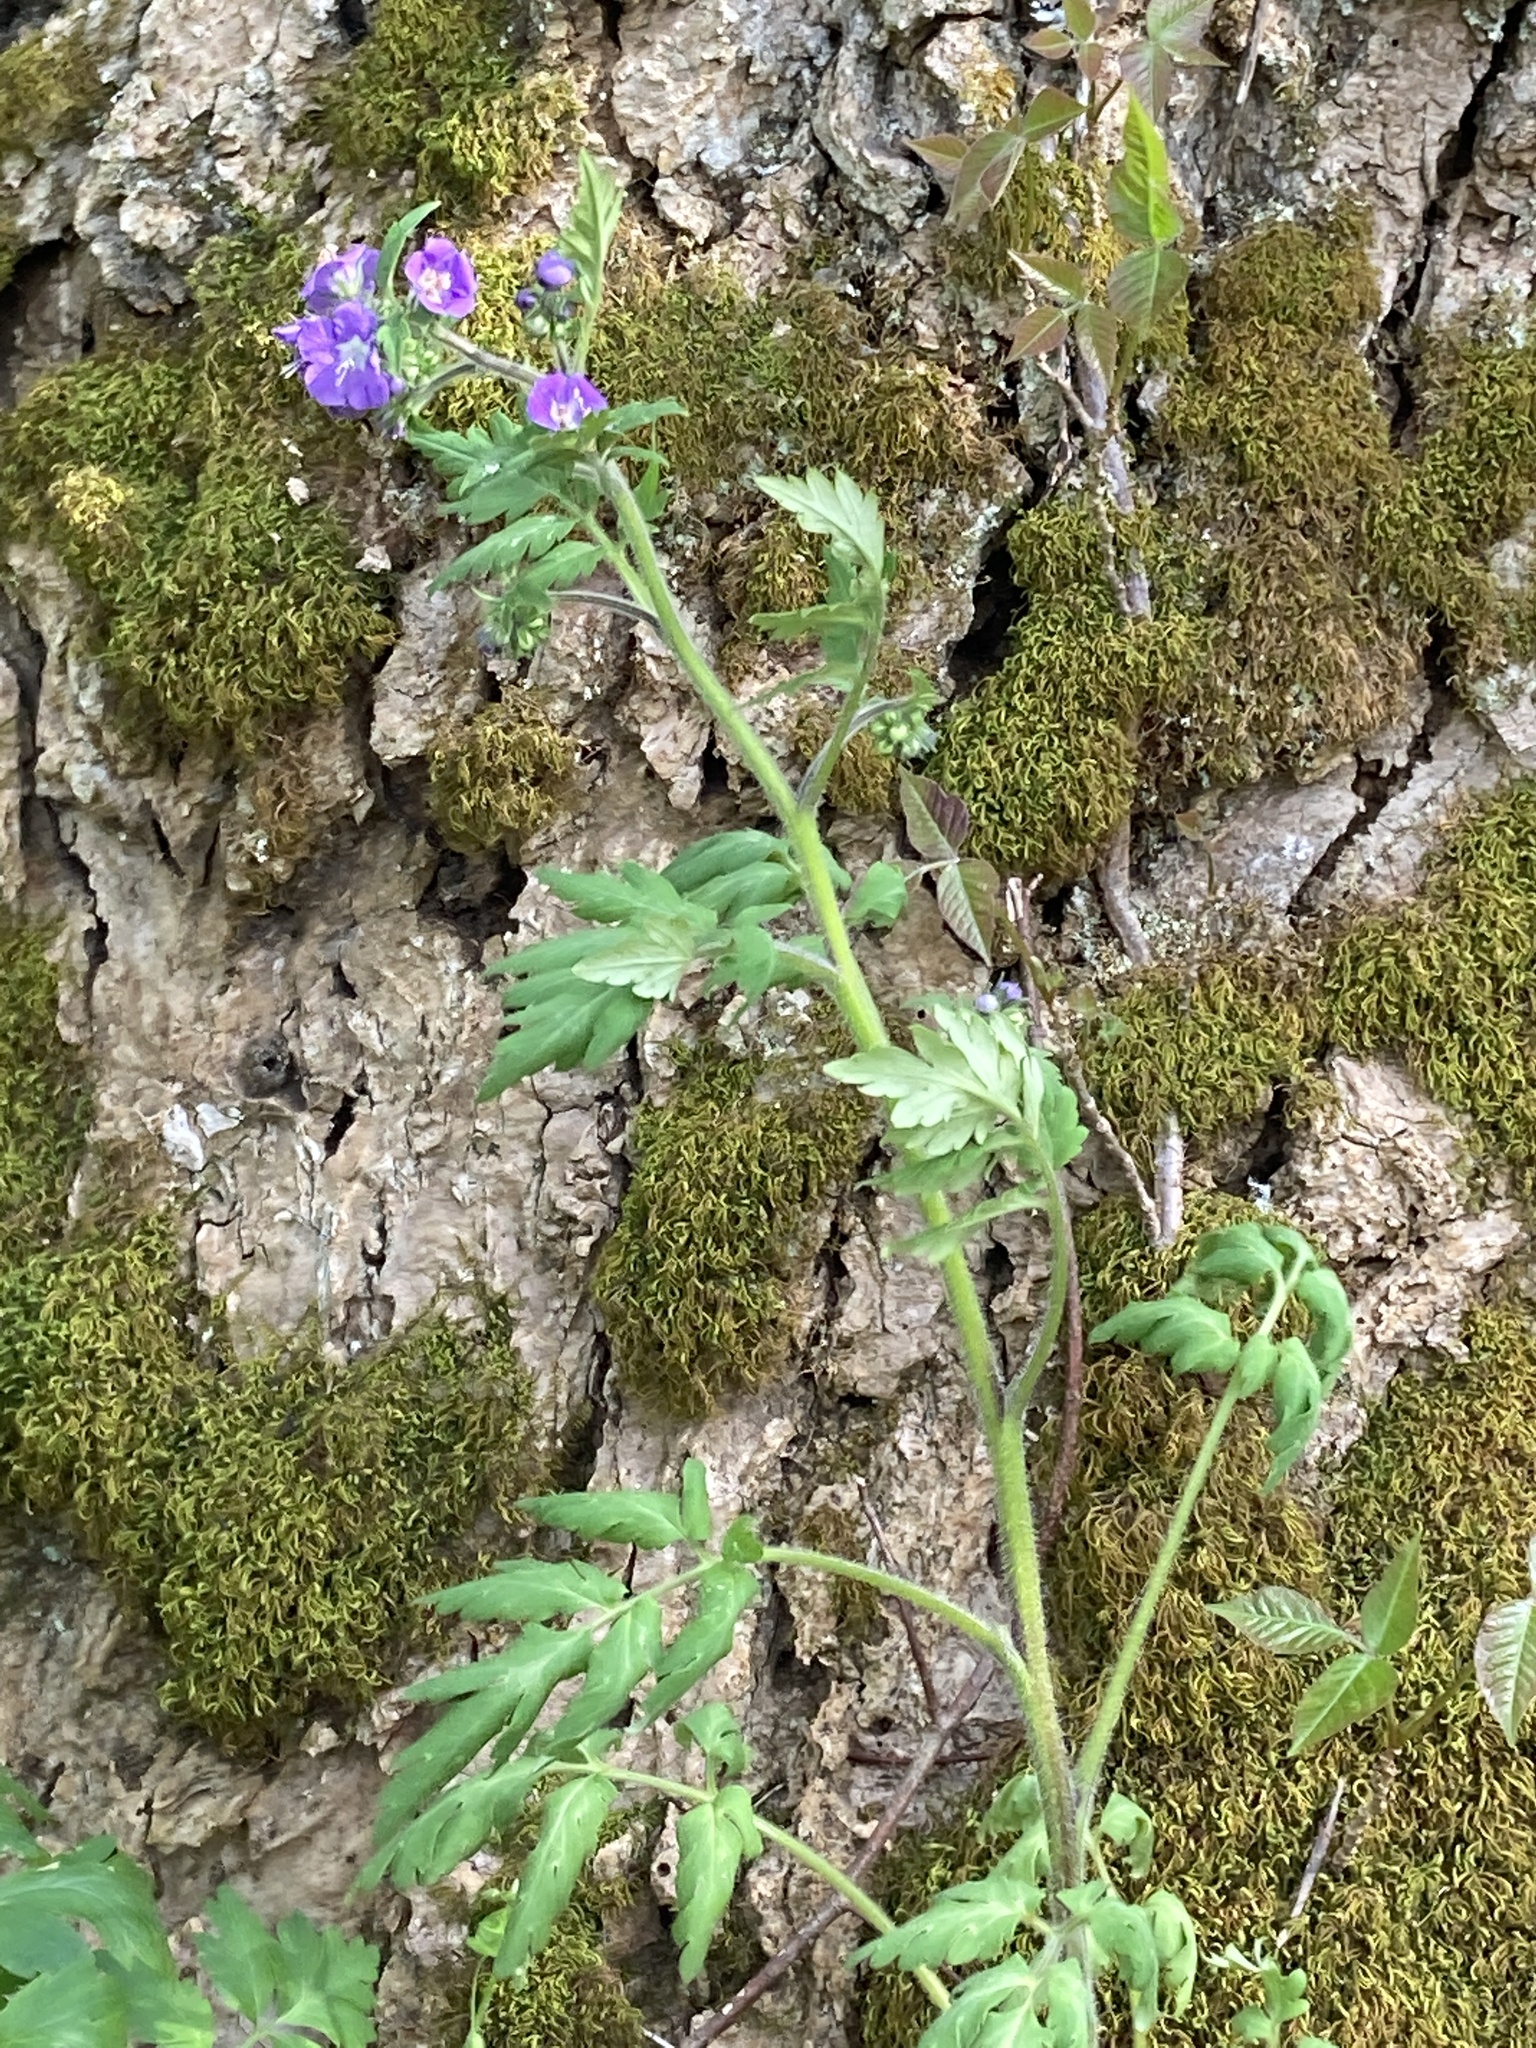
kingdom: Plantae
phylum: Tracheophyta
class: Magnoliopsida
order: Boraginales
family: Hydrophyllaceae
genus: Phacelia
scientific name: Phacelia bipinnatifida
